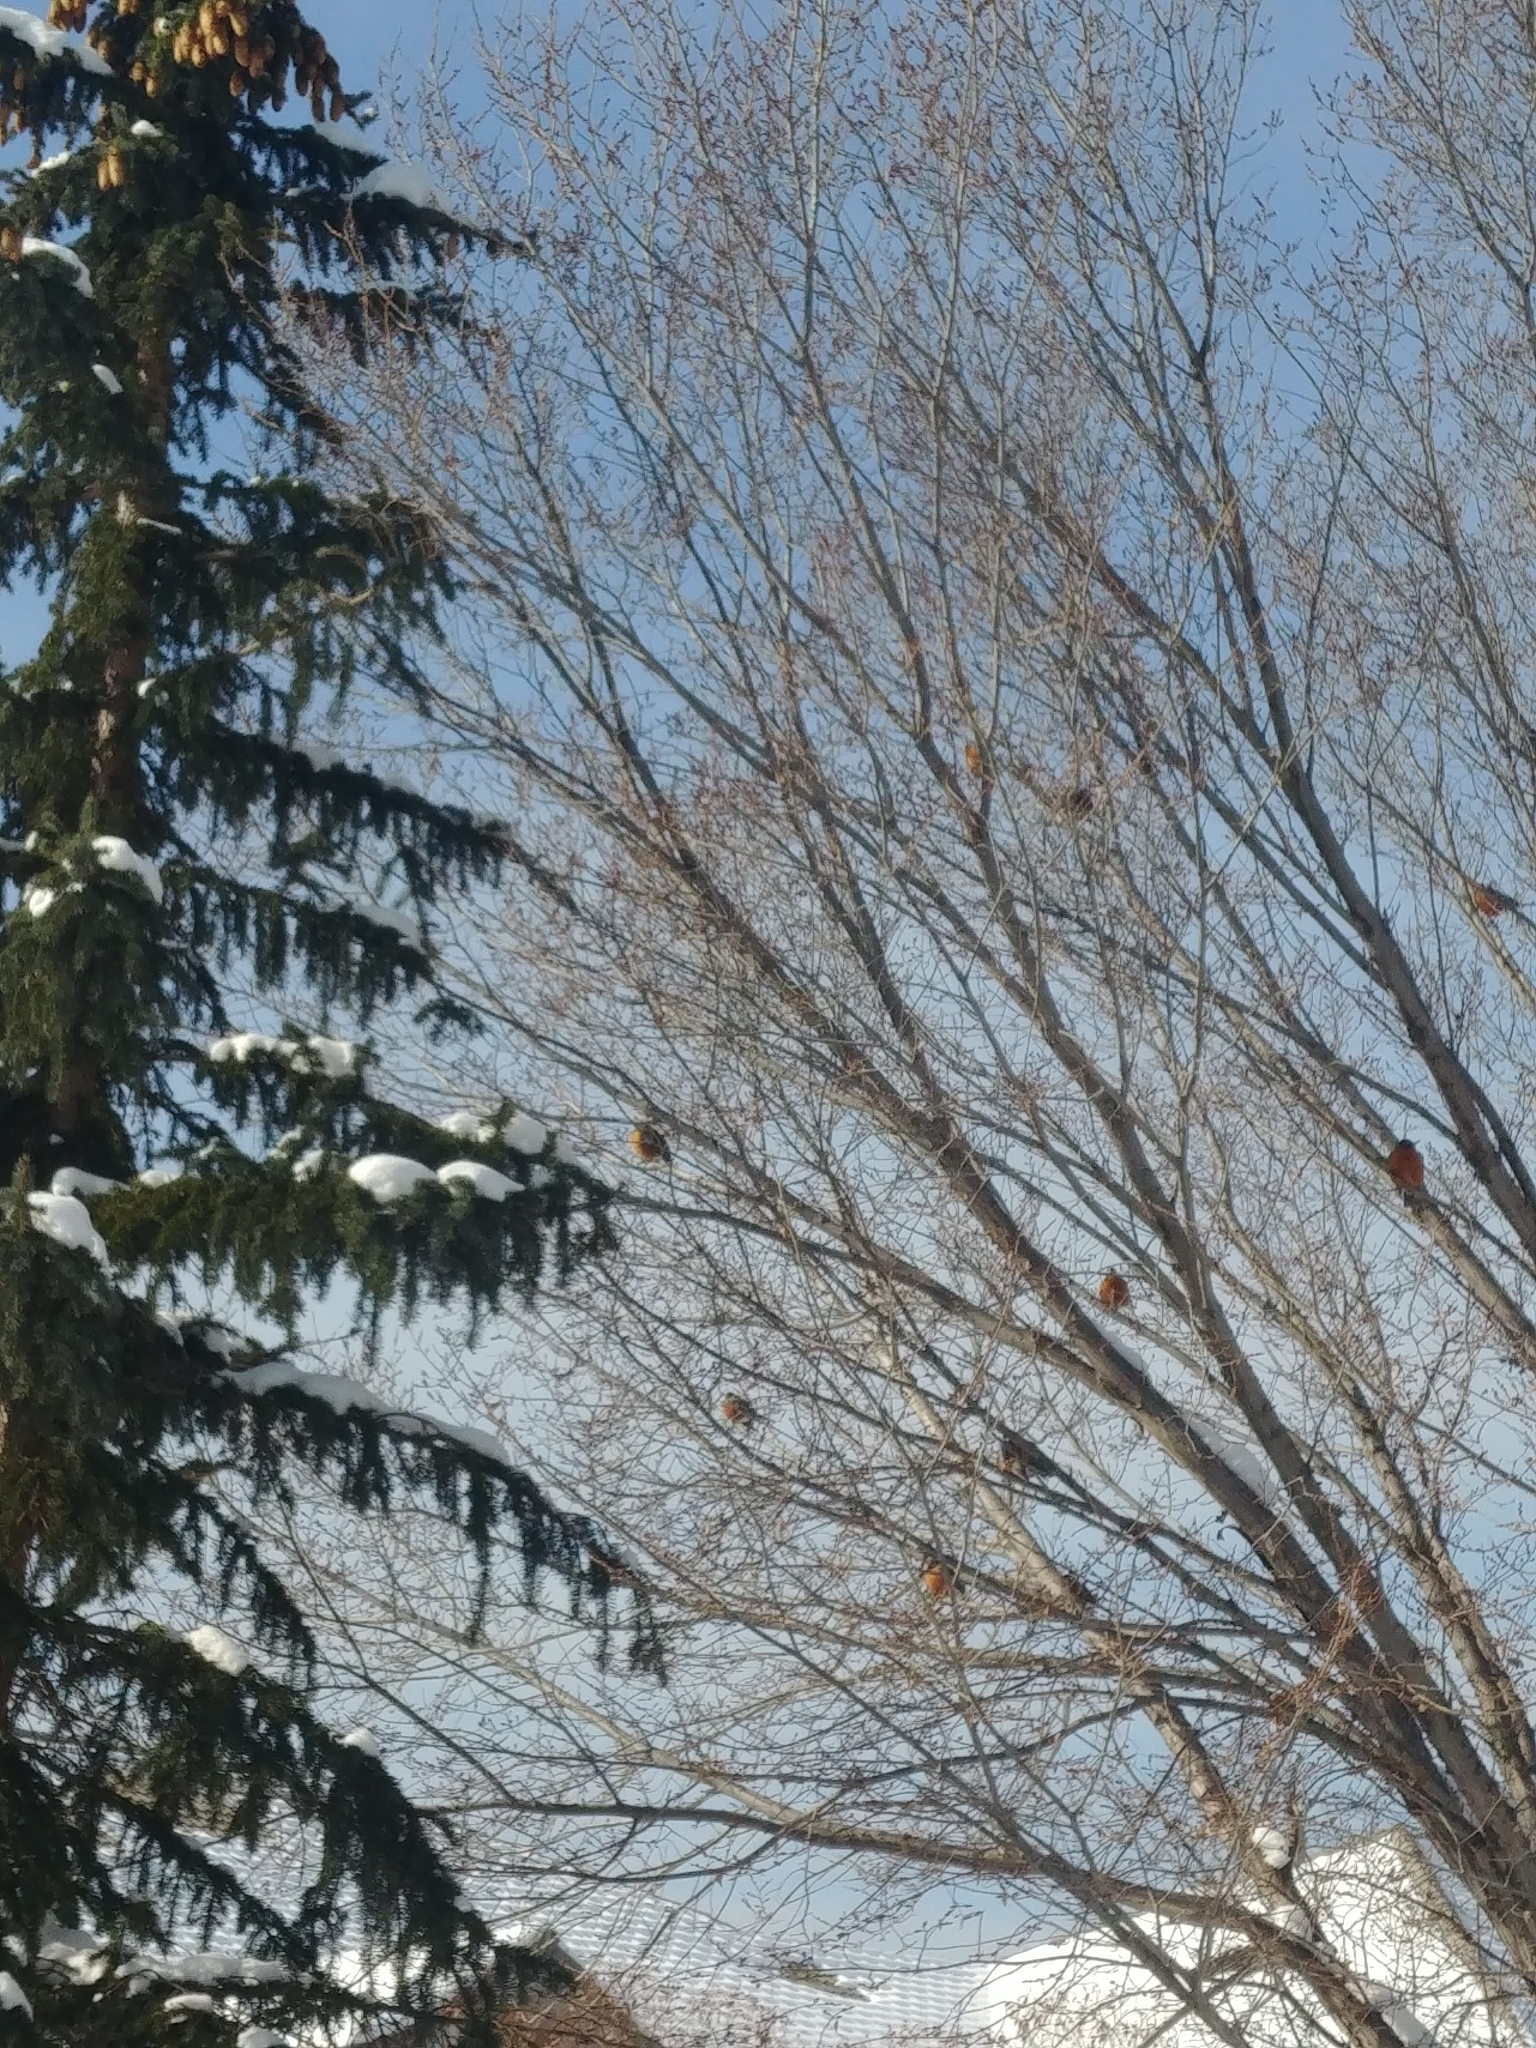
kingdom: Animalia
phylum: Chordata
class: Aves
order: Passeriformes
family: Turdidae
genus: Turdus
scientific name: Turdus migratorius
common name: American robin
